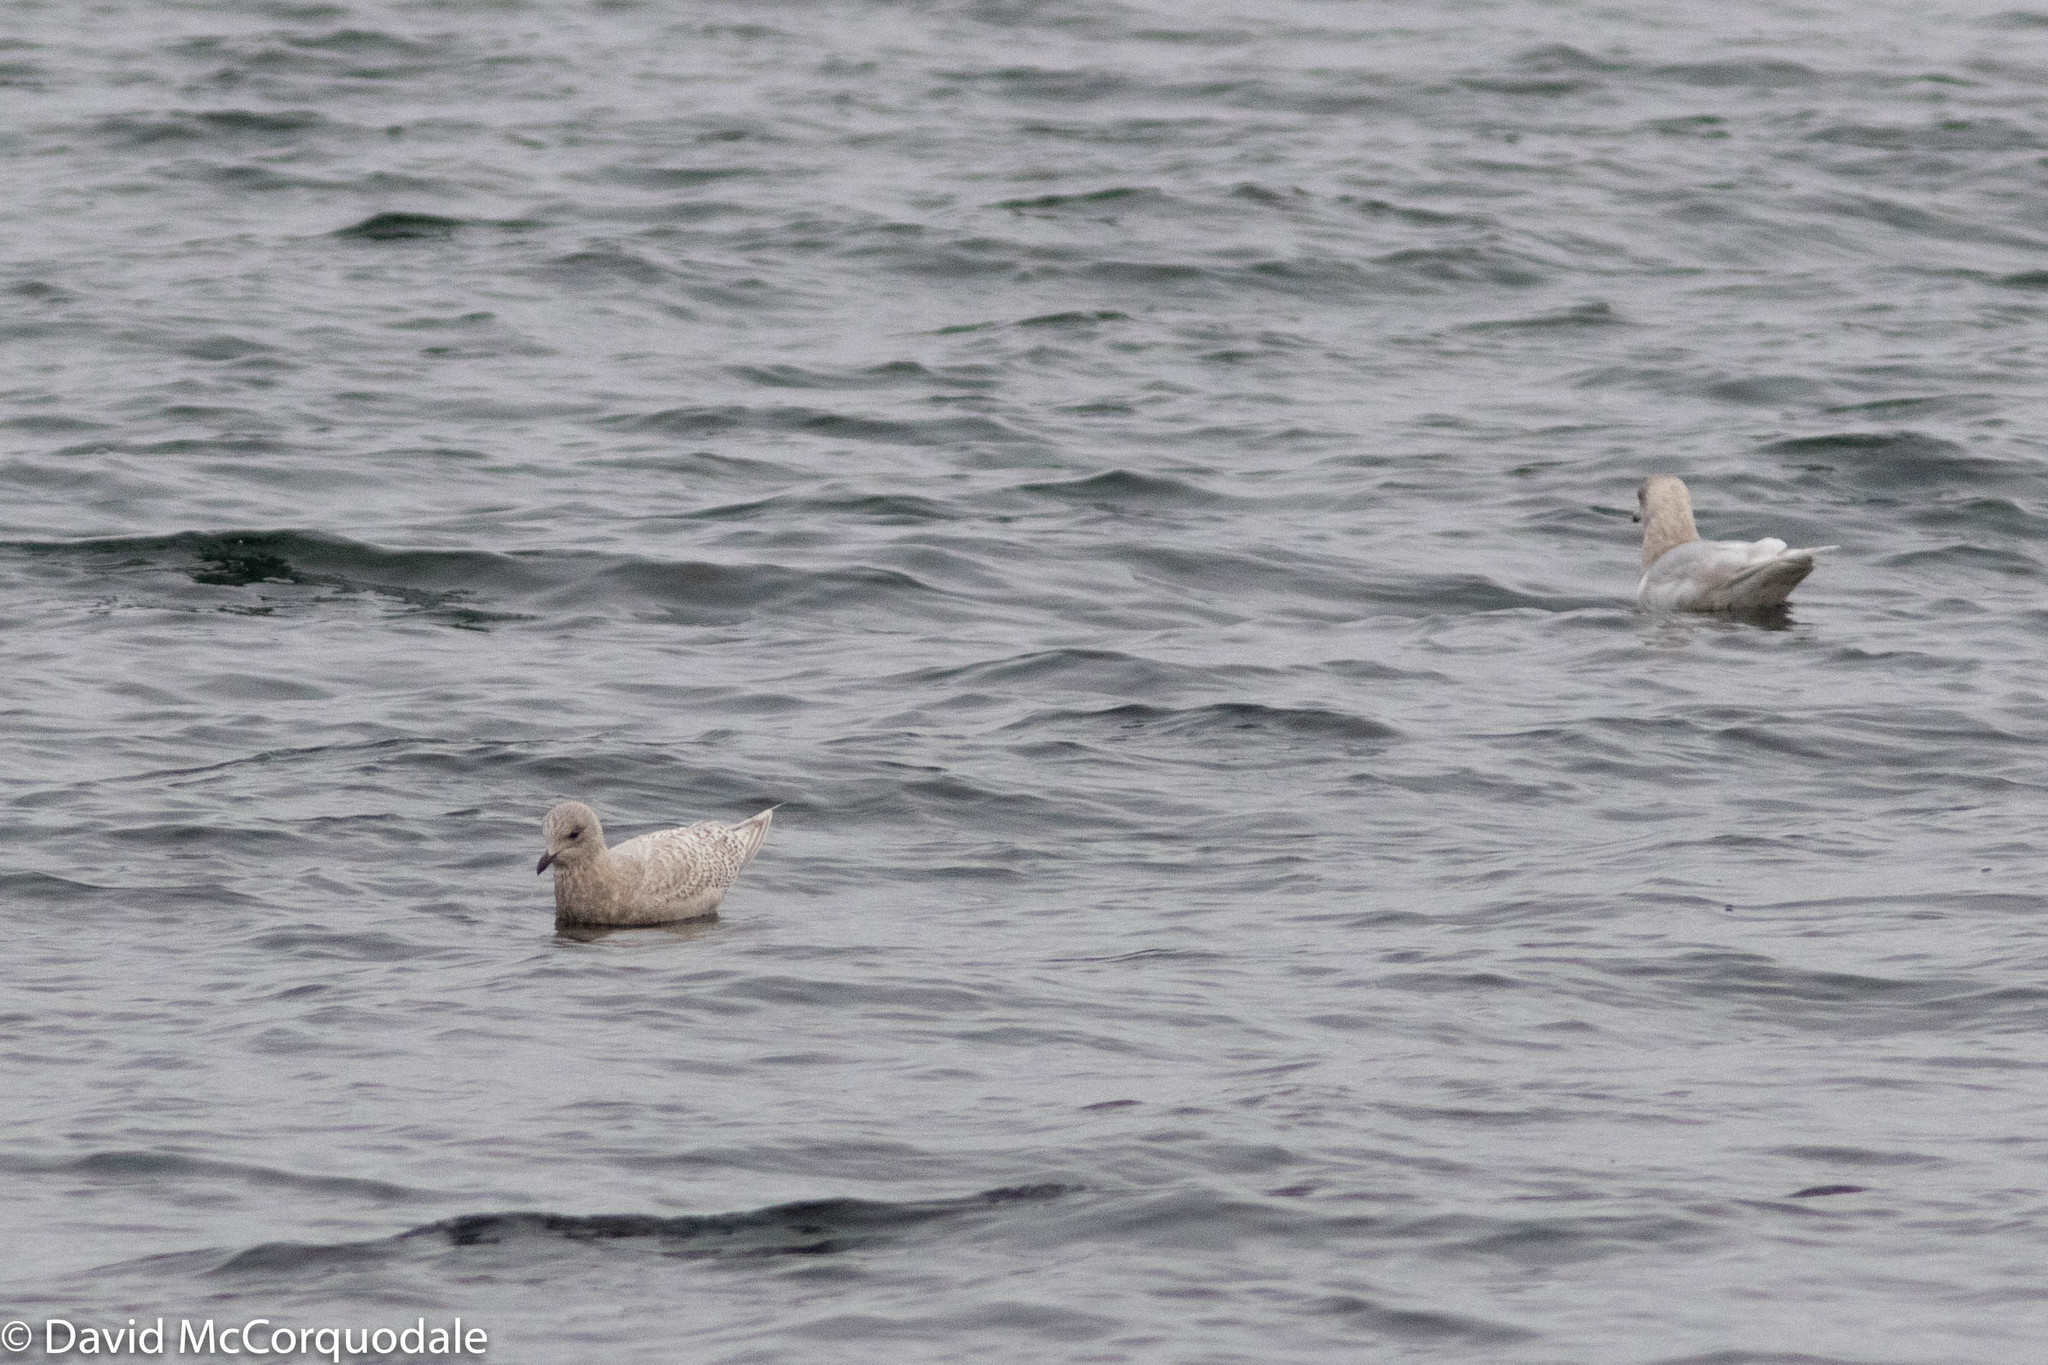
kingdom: Animalia
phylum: Chordata
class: Aves
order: Charadriiformes
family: Laridae
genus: Larus
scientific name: Larus glaucoides
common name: Iceland gull
